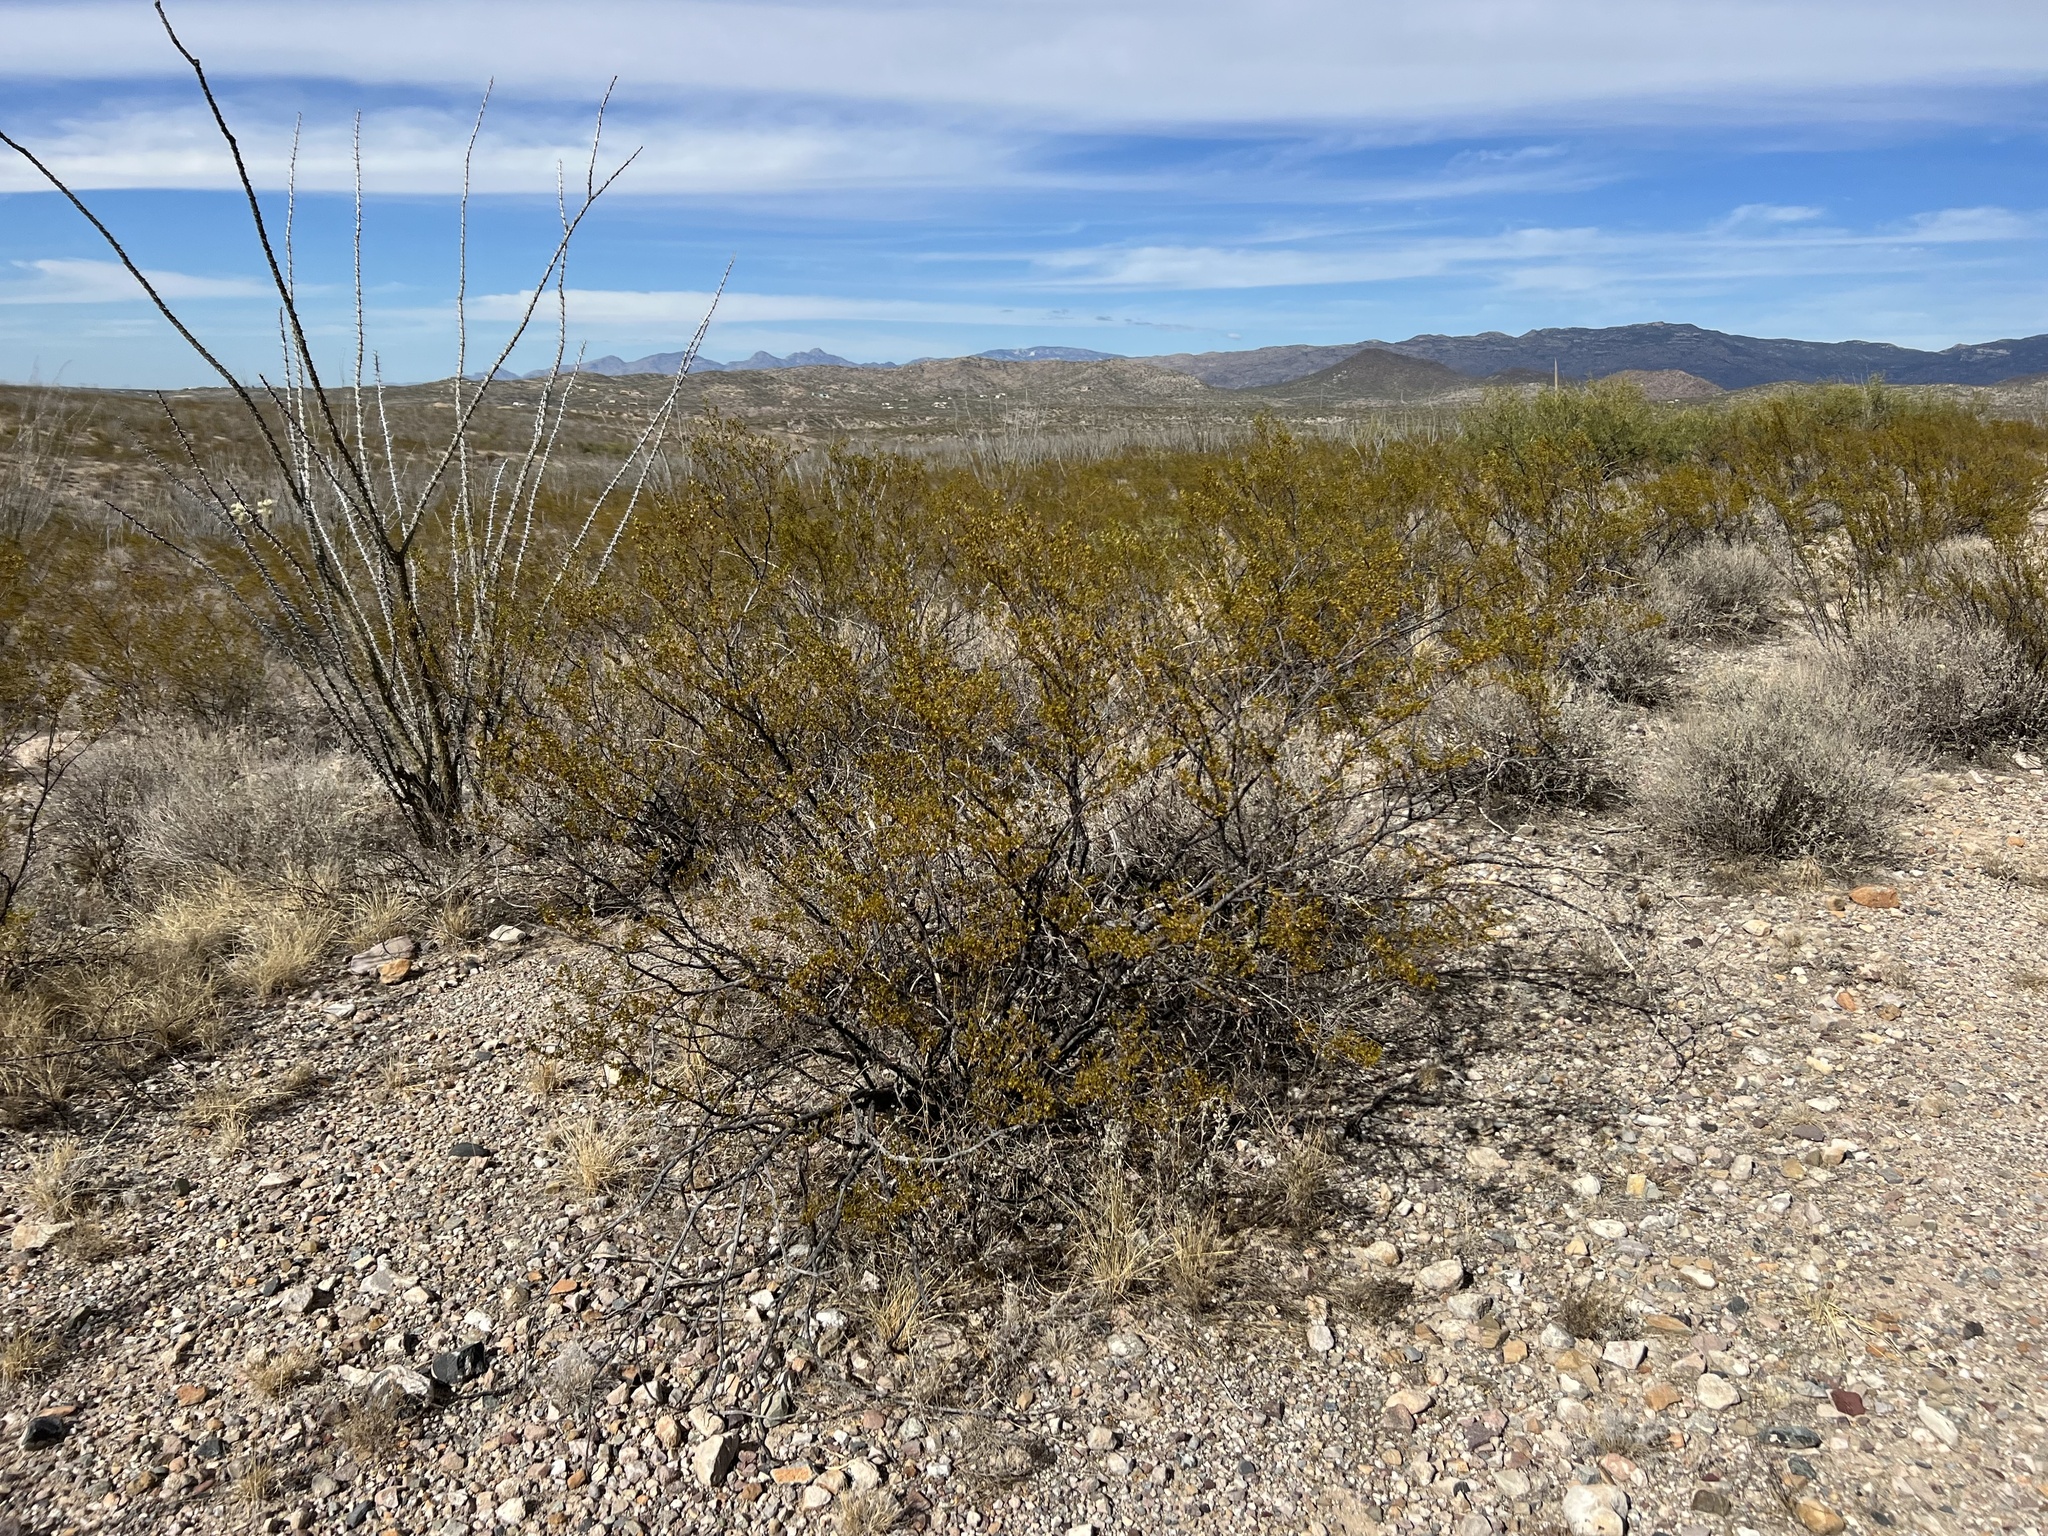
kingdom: Plantae
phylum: Tracheophyta
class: Magnoliopsida
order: Zygophyllales
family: Zygophyllaceae
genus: Larrea
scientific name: Larrea tridentata
